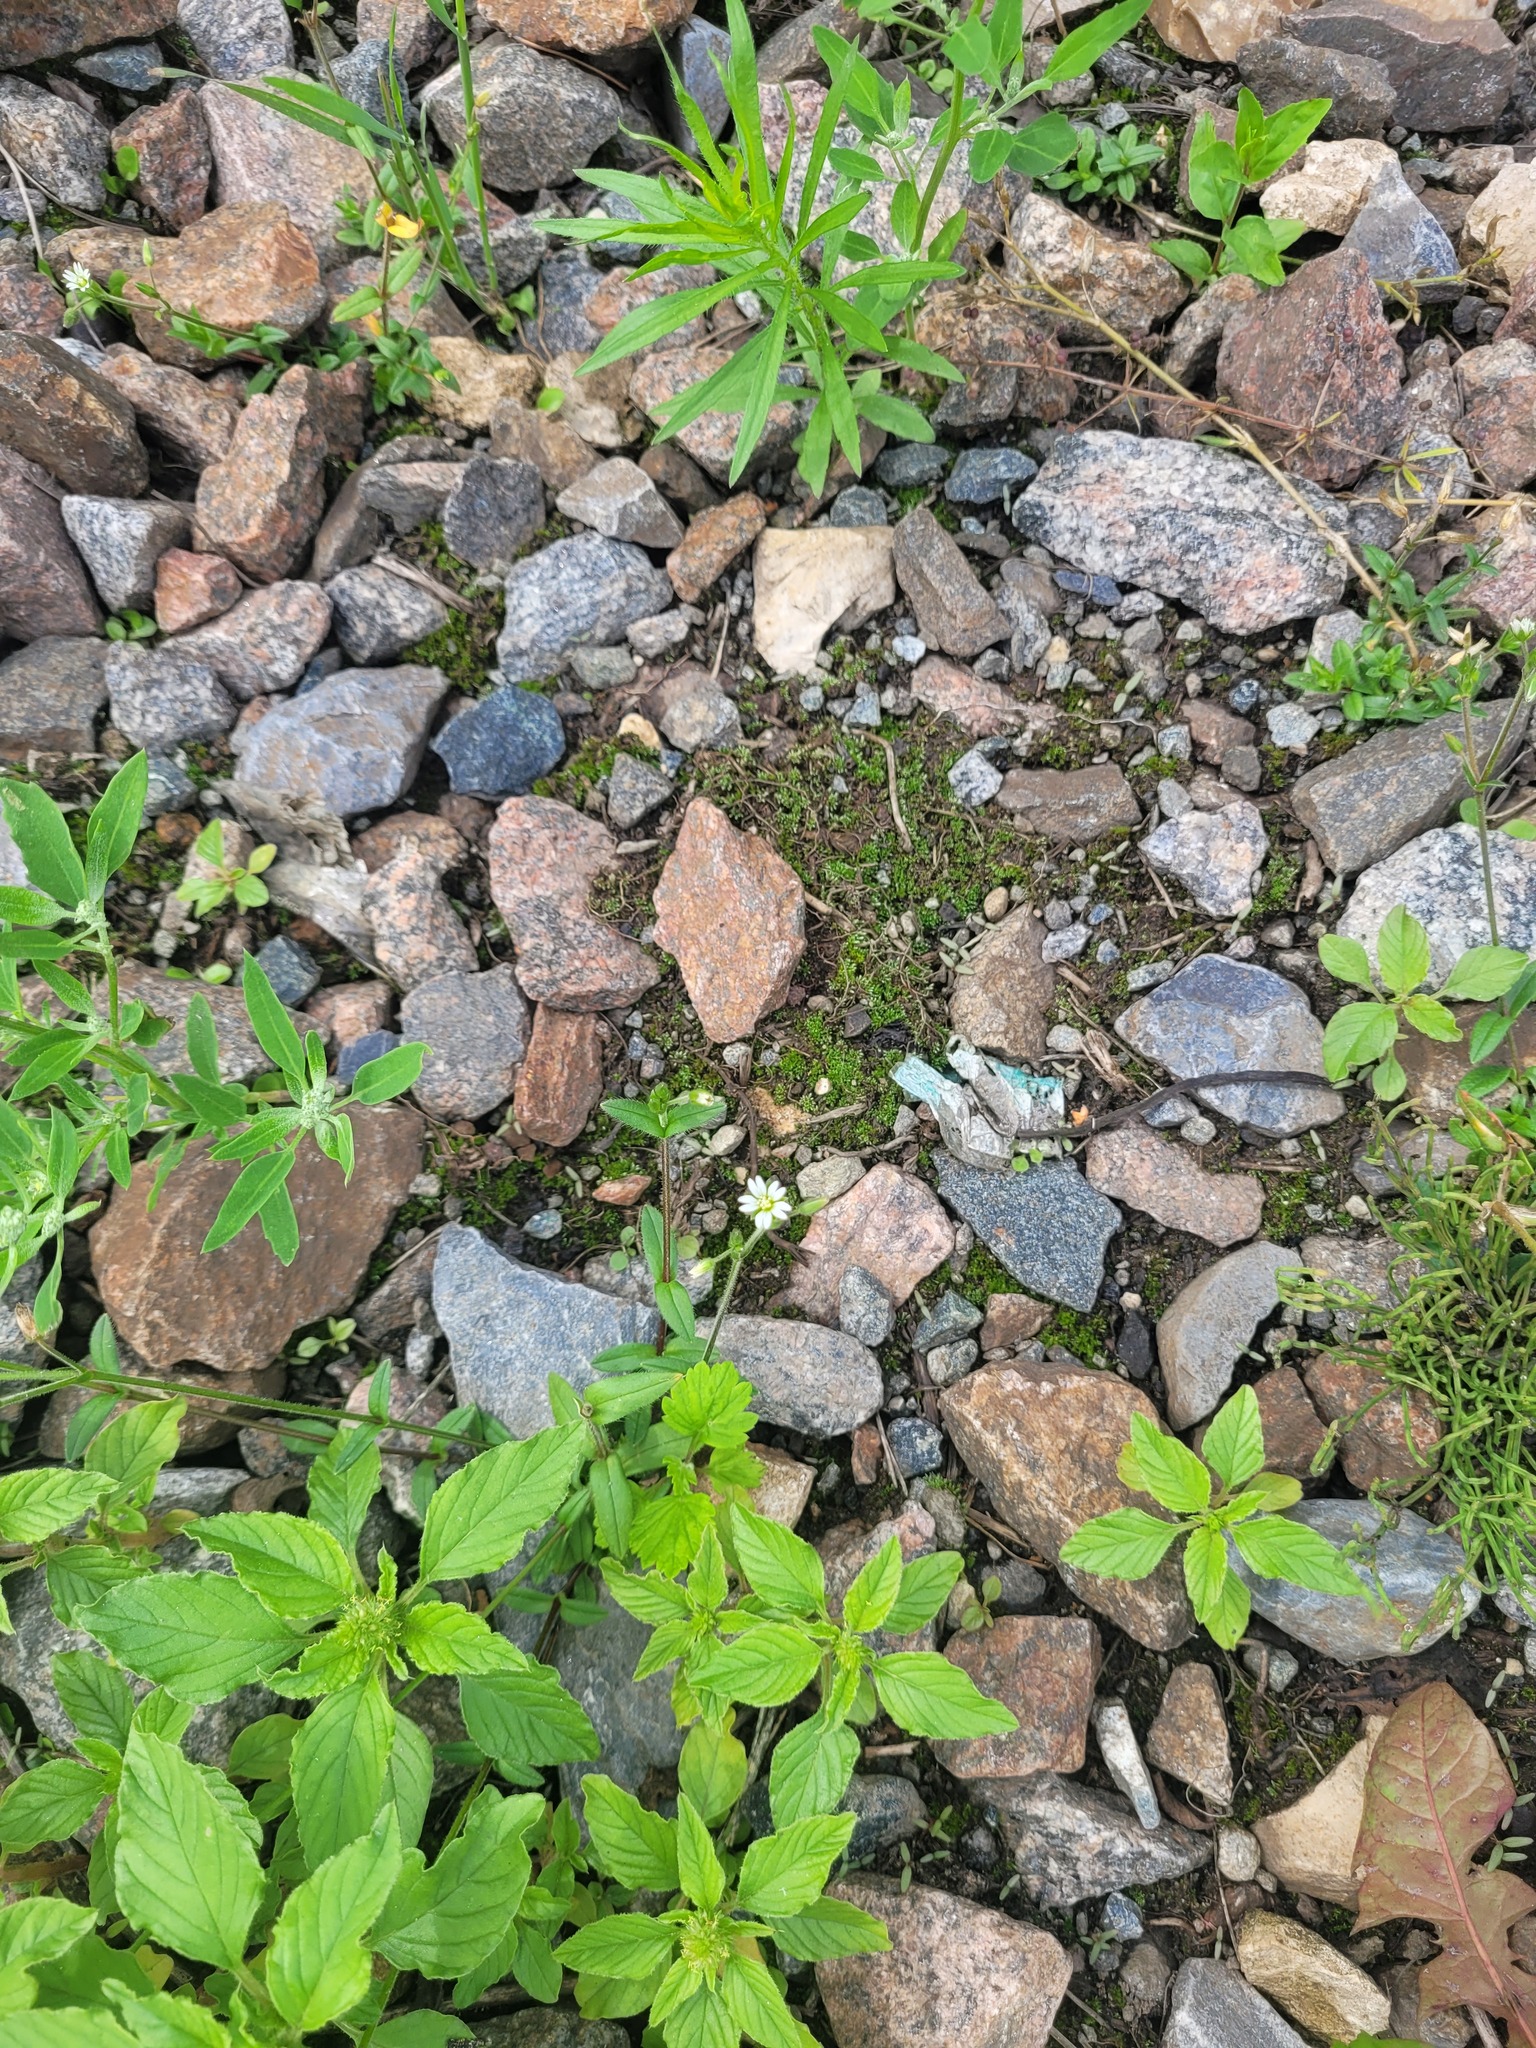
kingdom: Plantae
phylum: Tracheophyta
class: Magnoliopsida
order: Caryophyllales
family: Caryophyllaceae
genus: Cerastium
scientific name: Cerastium holosteoides
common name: Big chickweed
